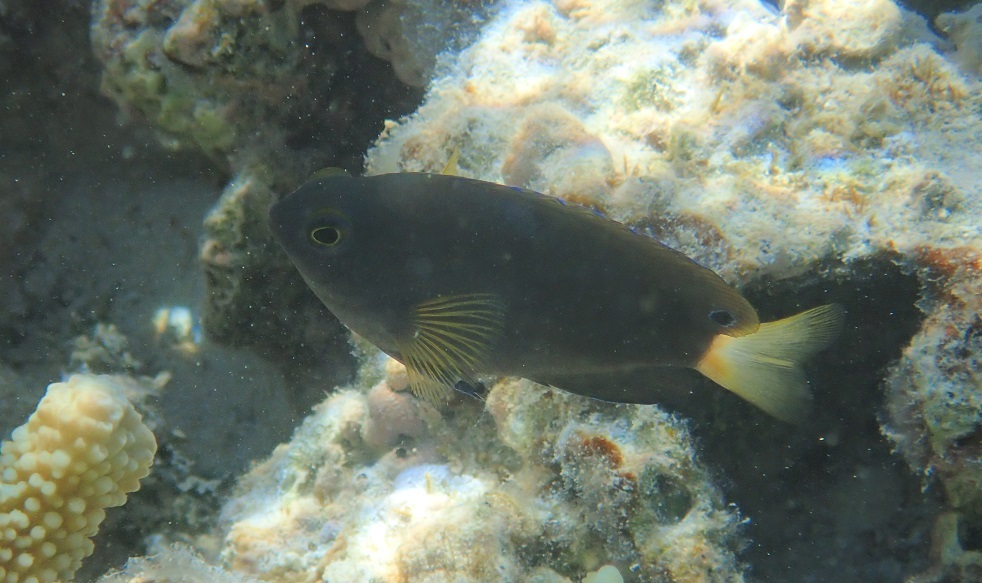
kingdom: Animalia
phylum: Chordata
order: Perciformes
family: Pomacentridae
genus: Pomacentrus
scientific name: Pomacentrus chrysurus
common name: White-tail damsel
